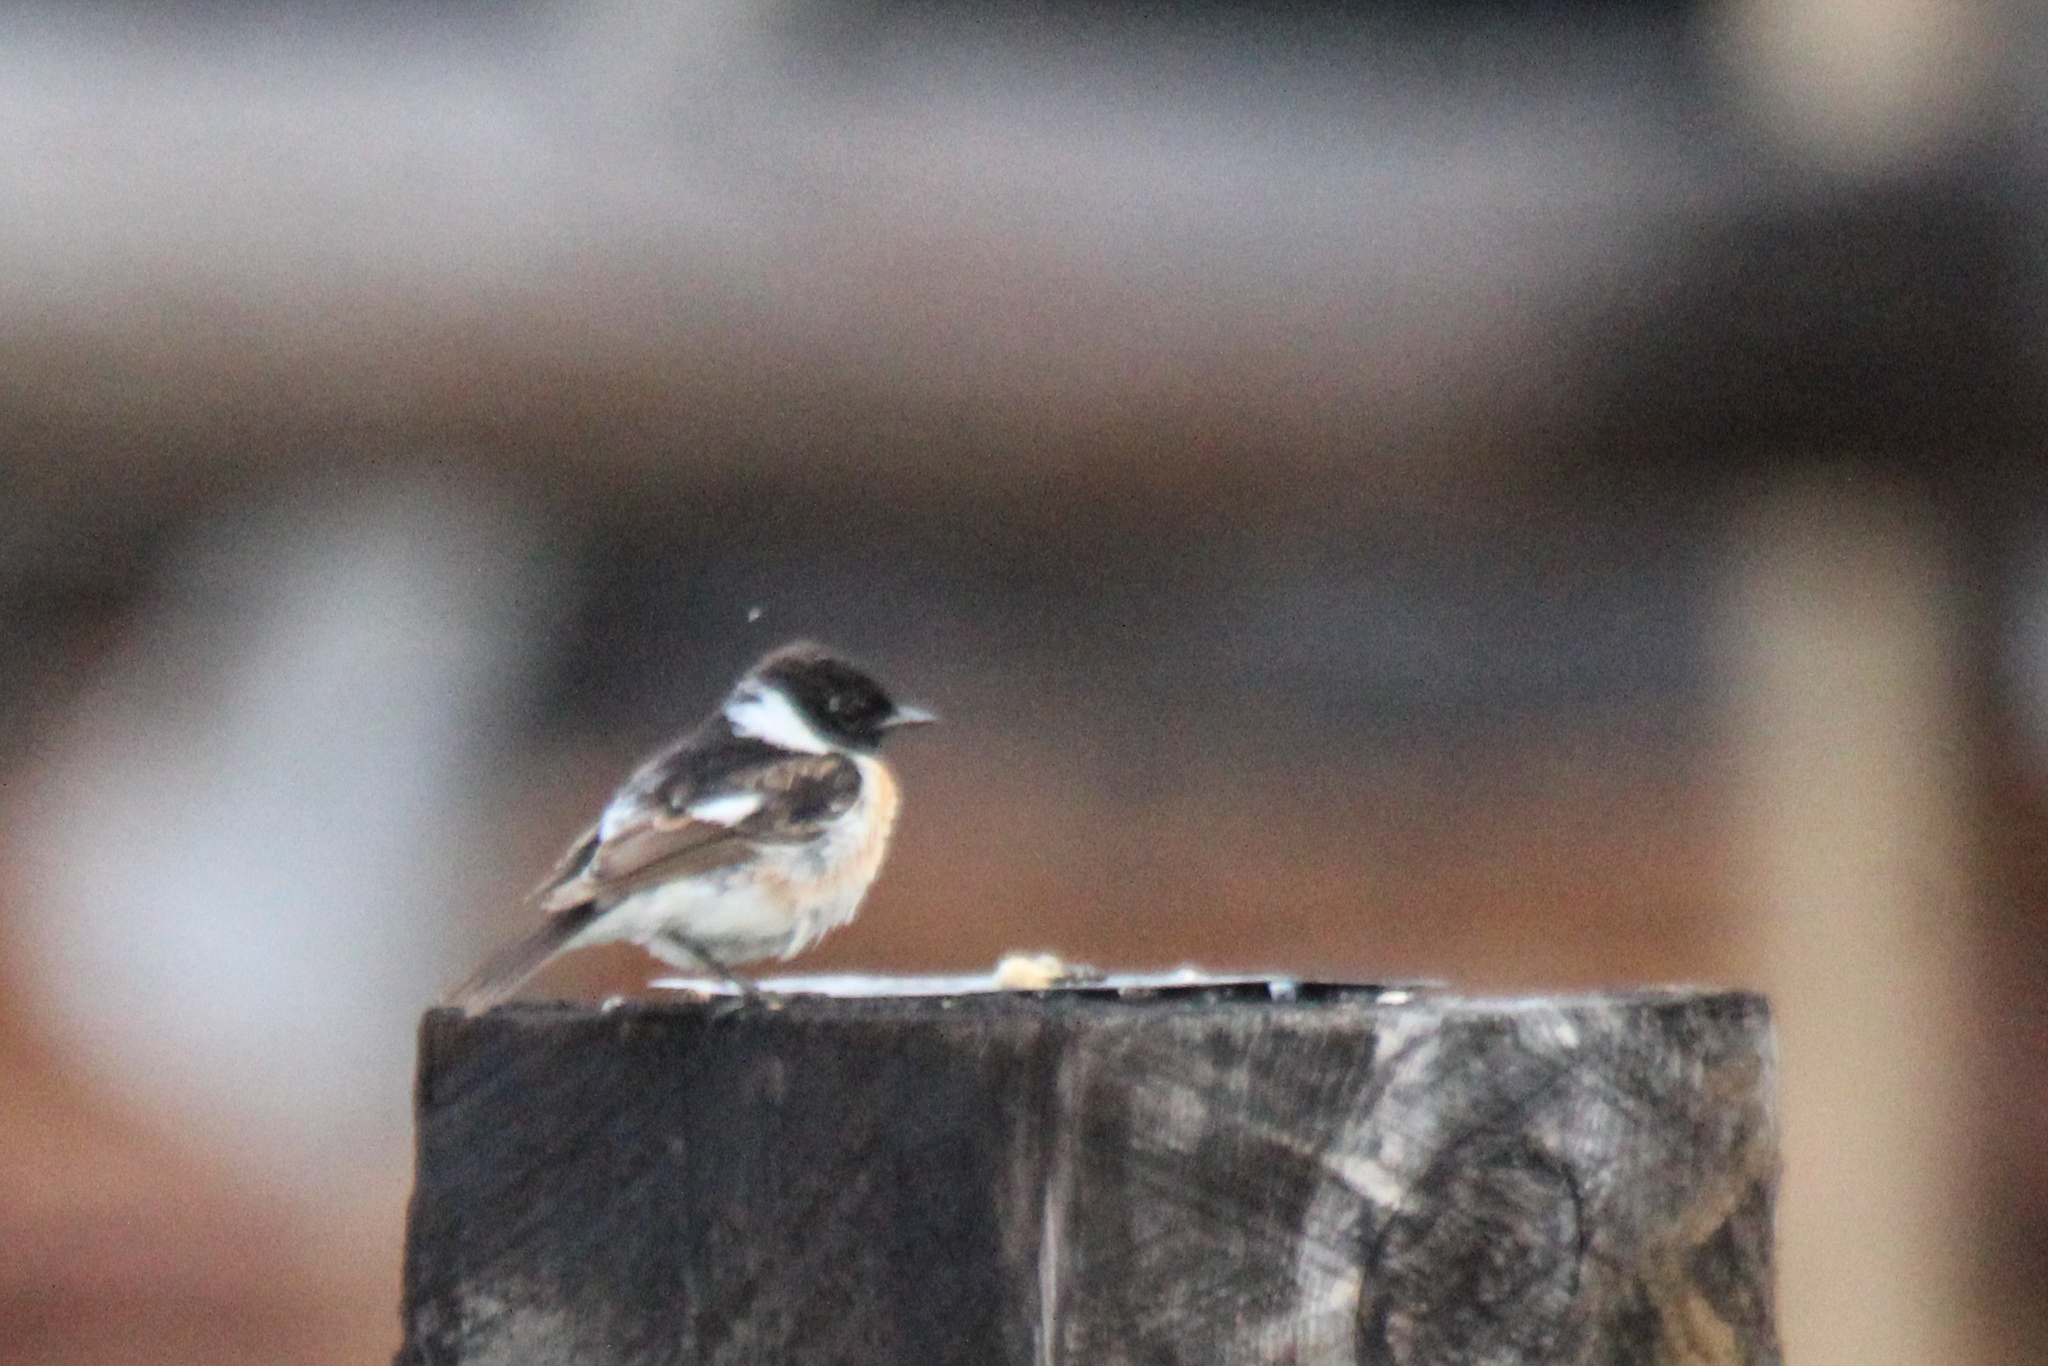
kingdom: Animalia
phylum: Chordata
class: Aves
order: Passeriformes
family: Muscicapidae
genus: Saxicola
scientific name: Saxicola maurus
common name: Siberian stonechat
